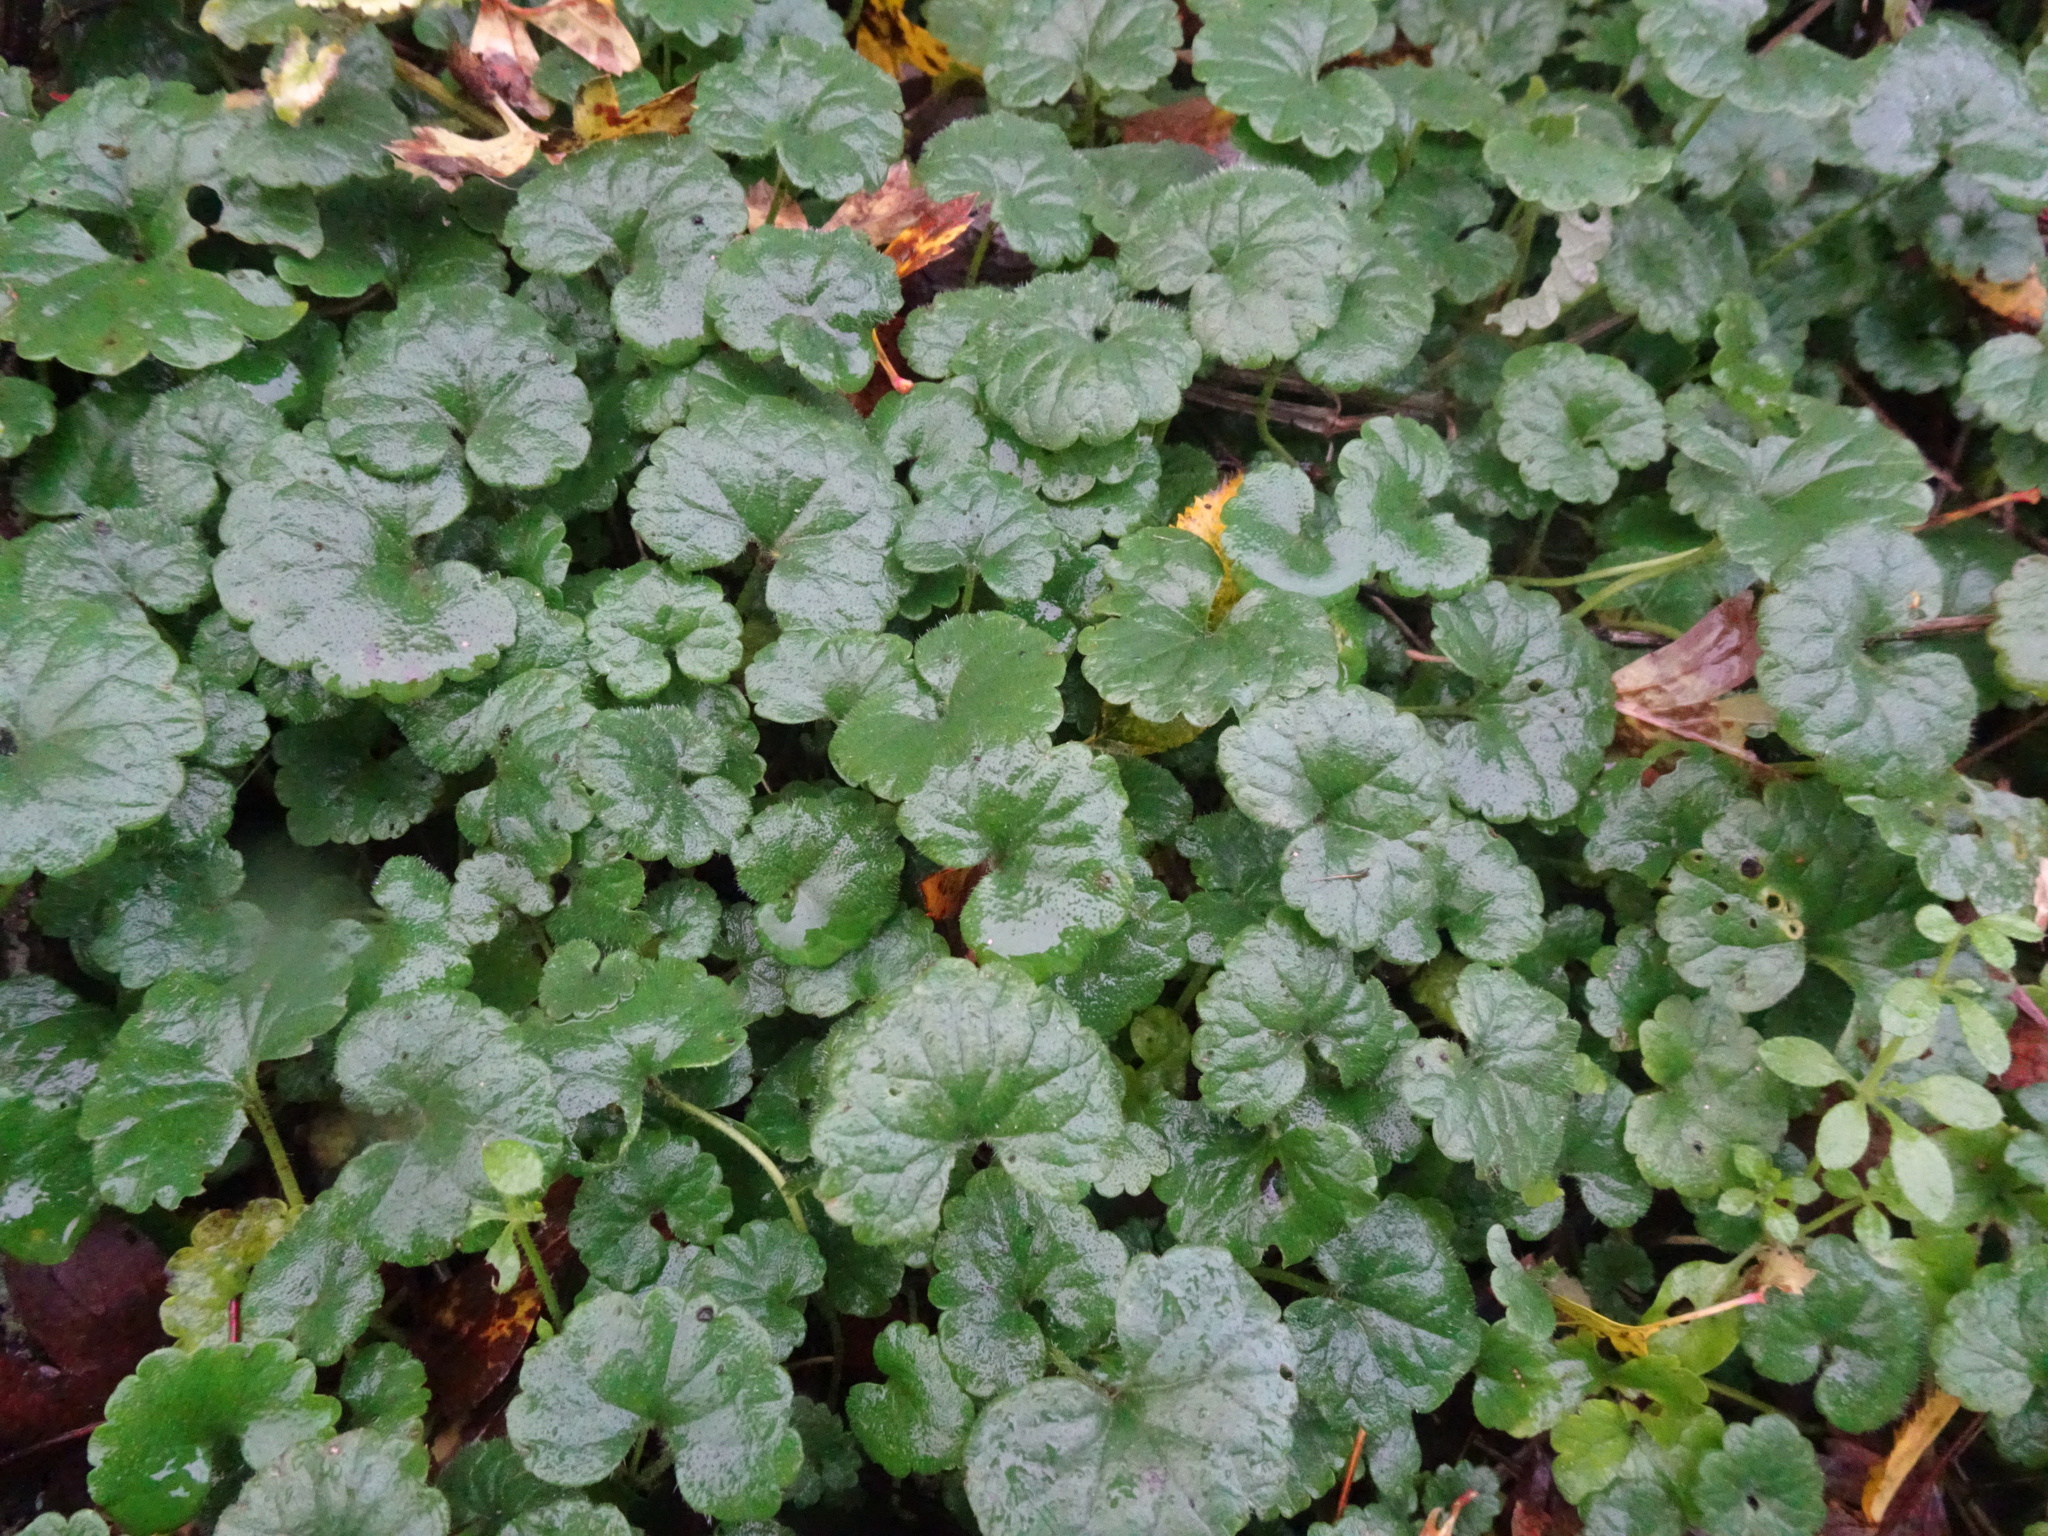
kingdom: Plantae
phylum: Tracheophyta
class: Magnoliopsida
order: Lamiales
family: Lamiaceae
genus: Glechoma
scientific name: Glechoma hederacea
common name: Ground ivy
